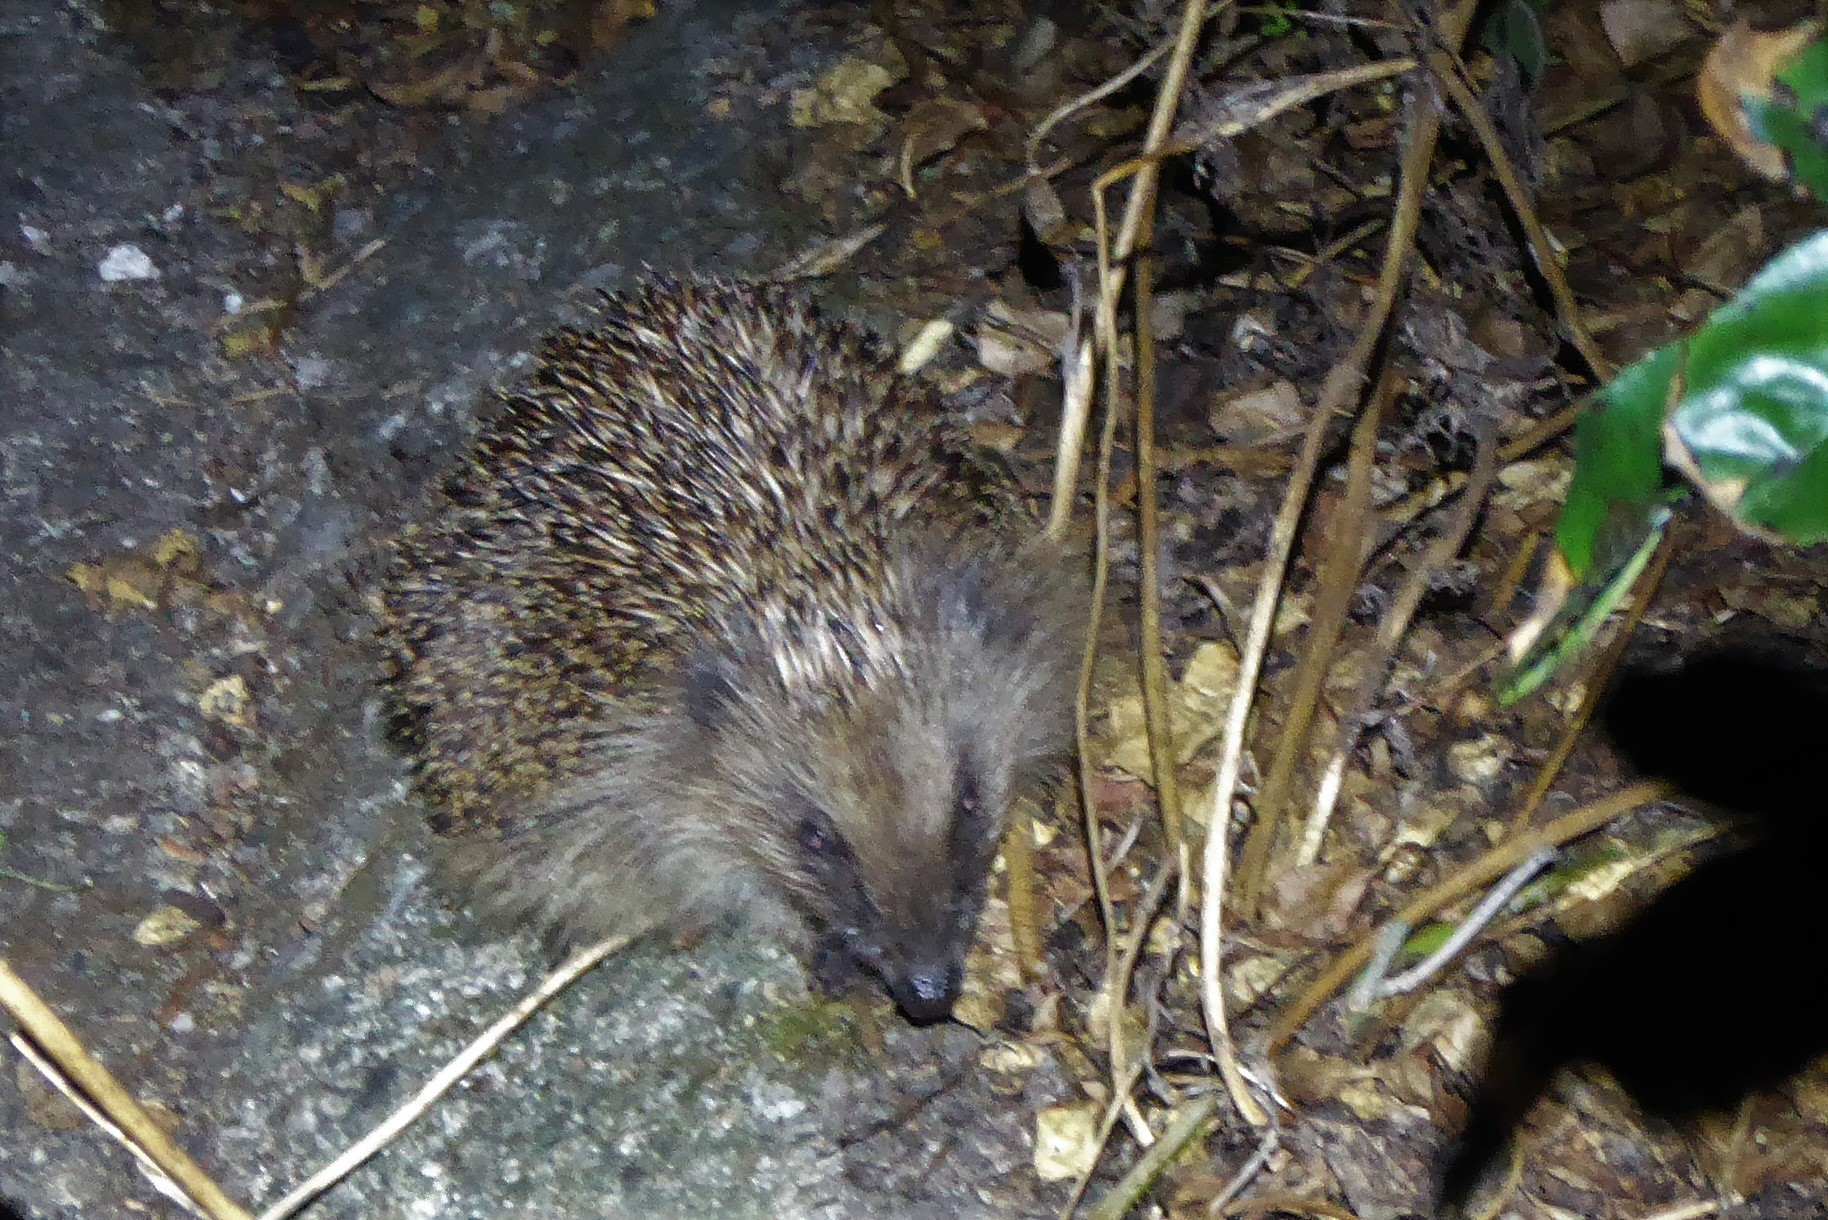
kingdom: Animalia
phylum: Chordata
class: Mammalia
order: Erinaceomorpha
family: Erinaceidae
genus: Erinaceus
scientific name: Erinaceus europaeus
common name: West european hedgehog
